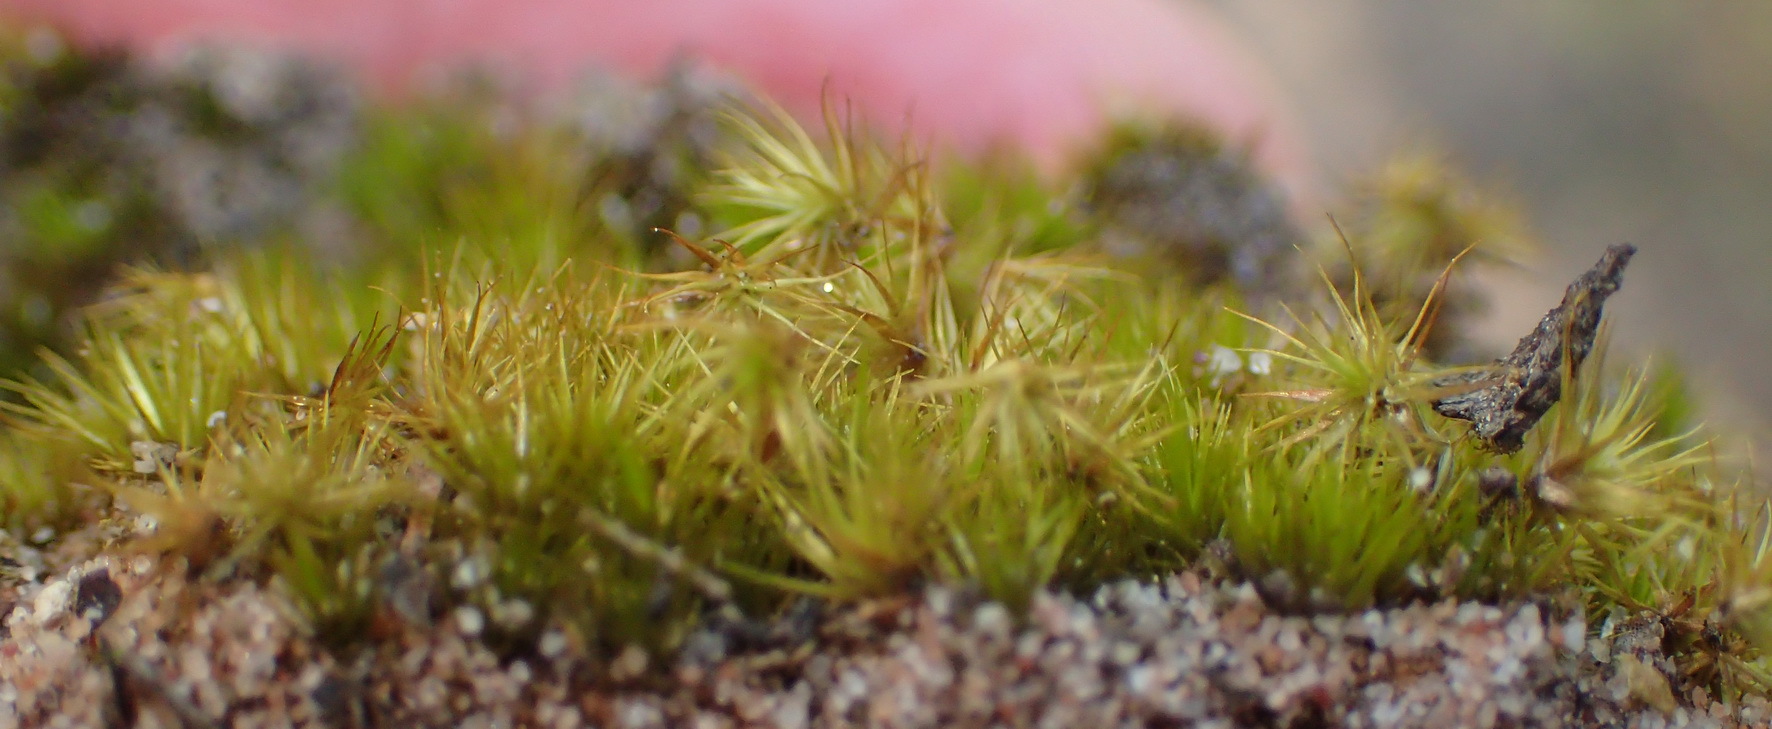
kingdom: Plantae
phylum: Bryophyta
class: Bryopsida
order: Dicranales
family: Leucobryaceae
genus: Campylopus
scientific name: Campylopus pyriformis
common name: Dwarf swan-neck moss
